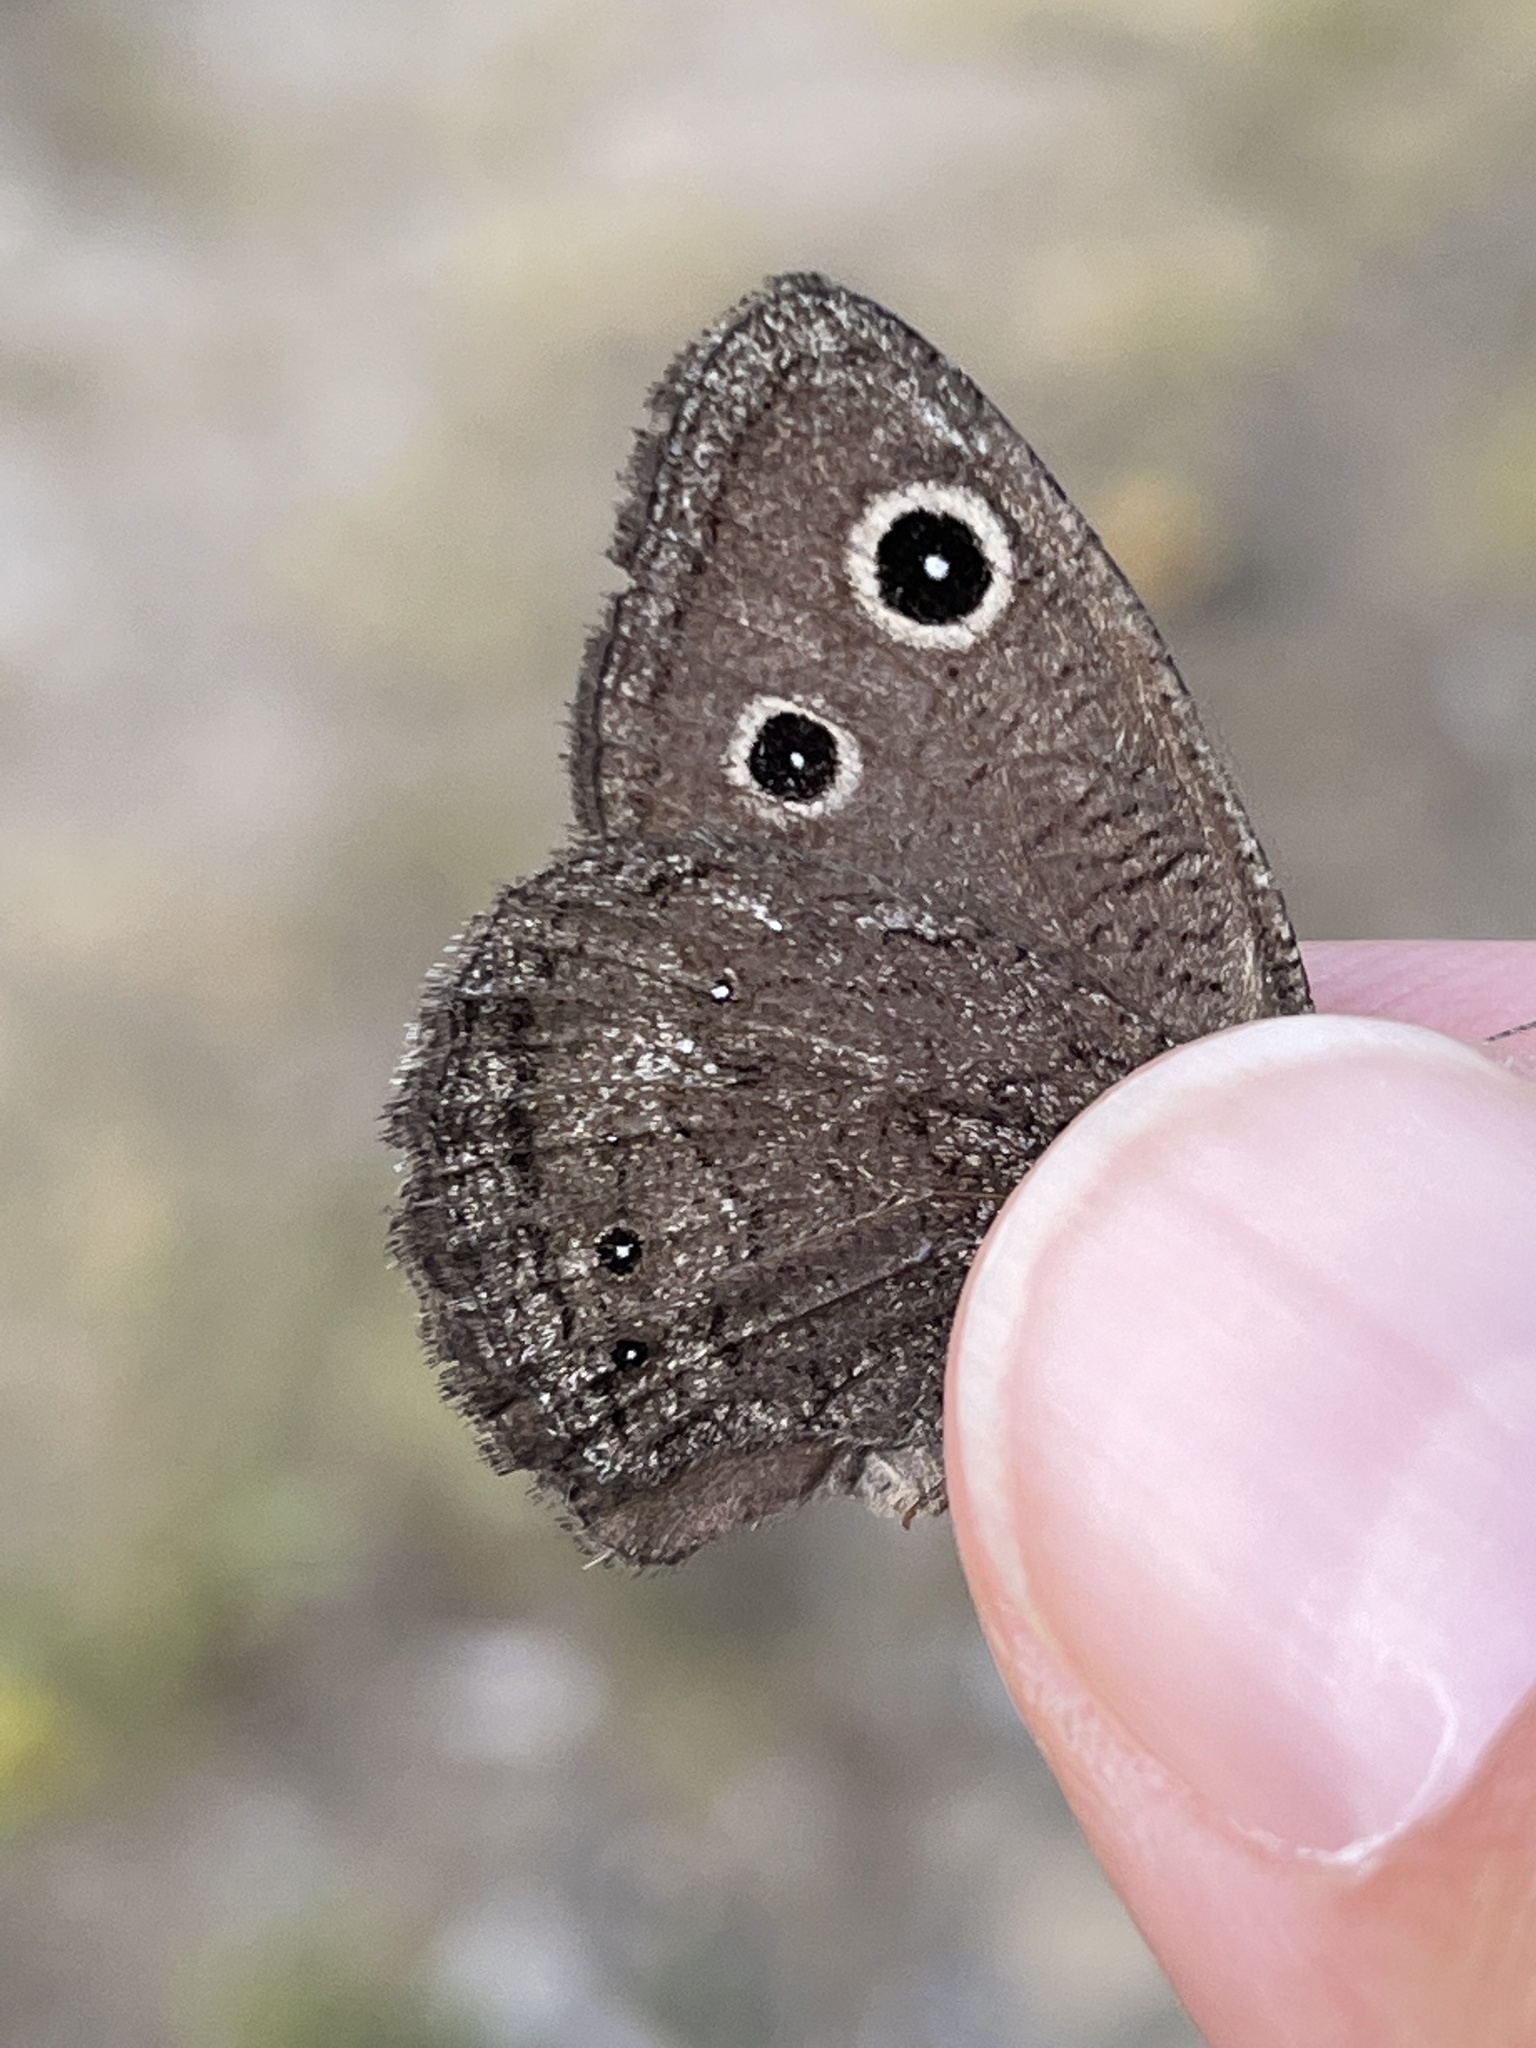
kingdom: Animalia
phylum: Arthropoda
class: Insecta
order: Lepidoptera
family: Nymphalidae
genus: Cercyonis
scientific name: Cercyonis oetus
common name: Small wood-nymph
